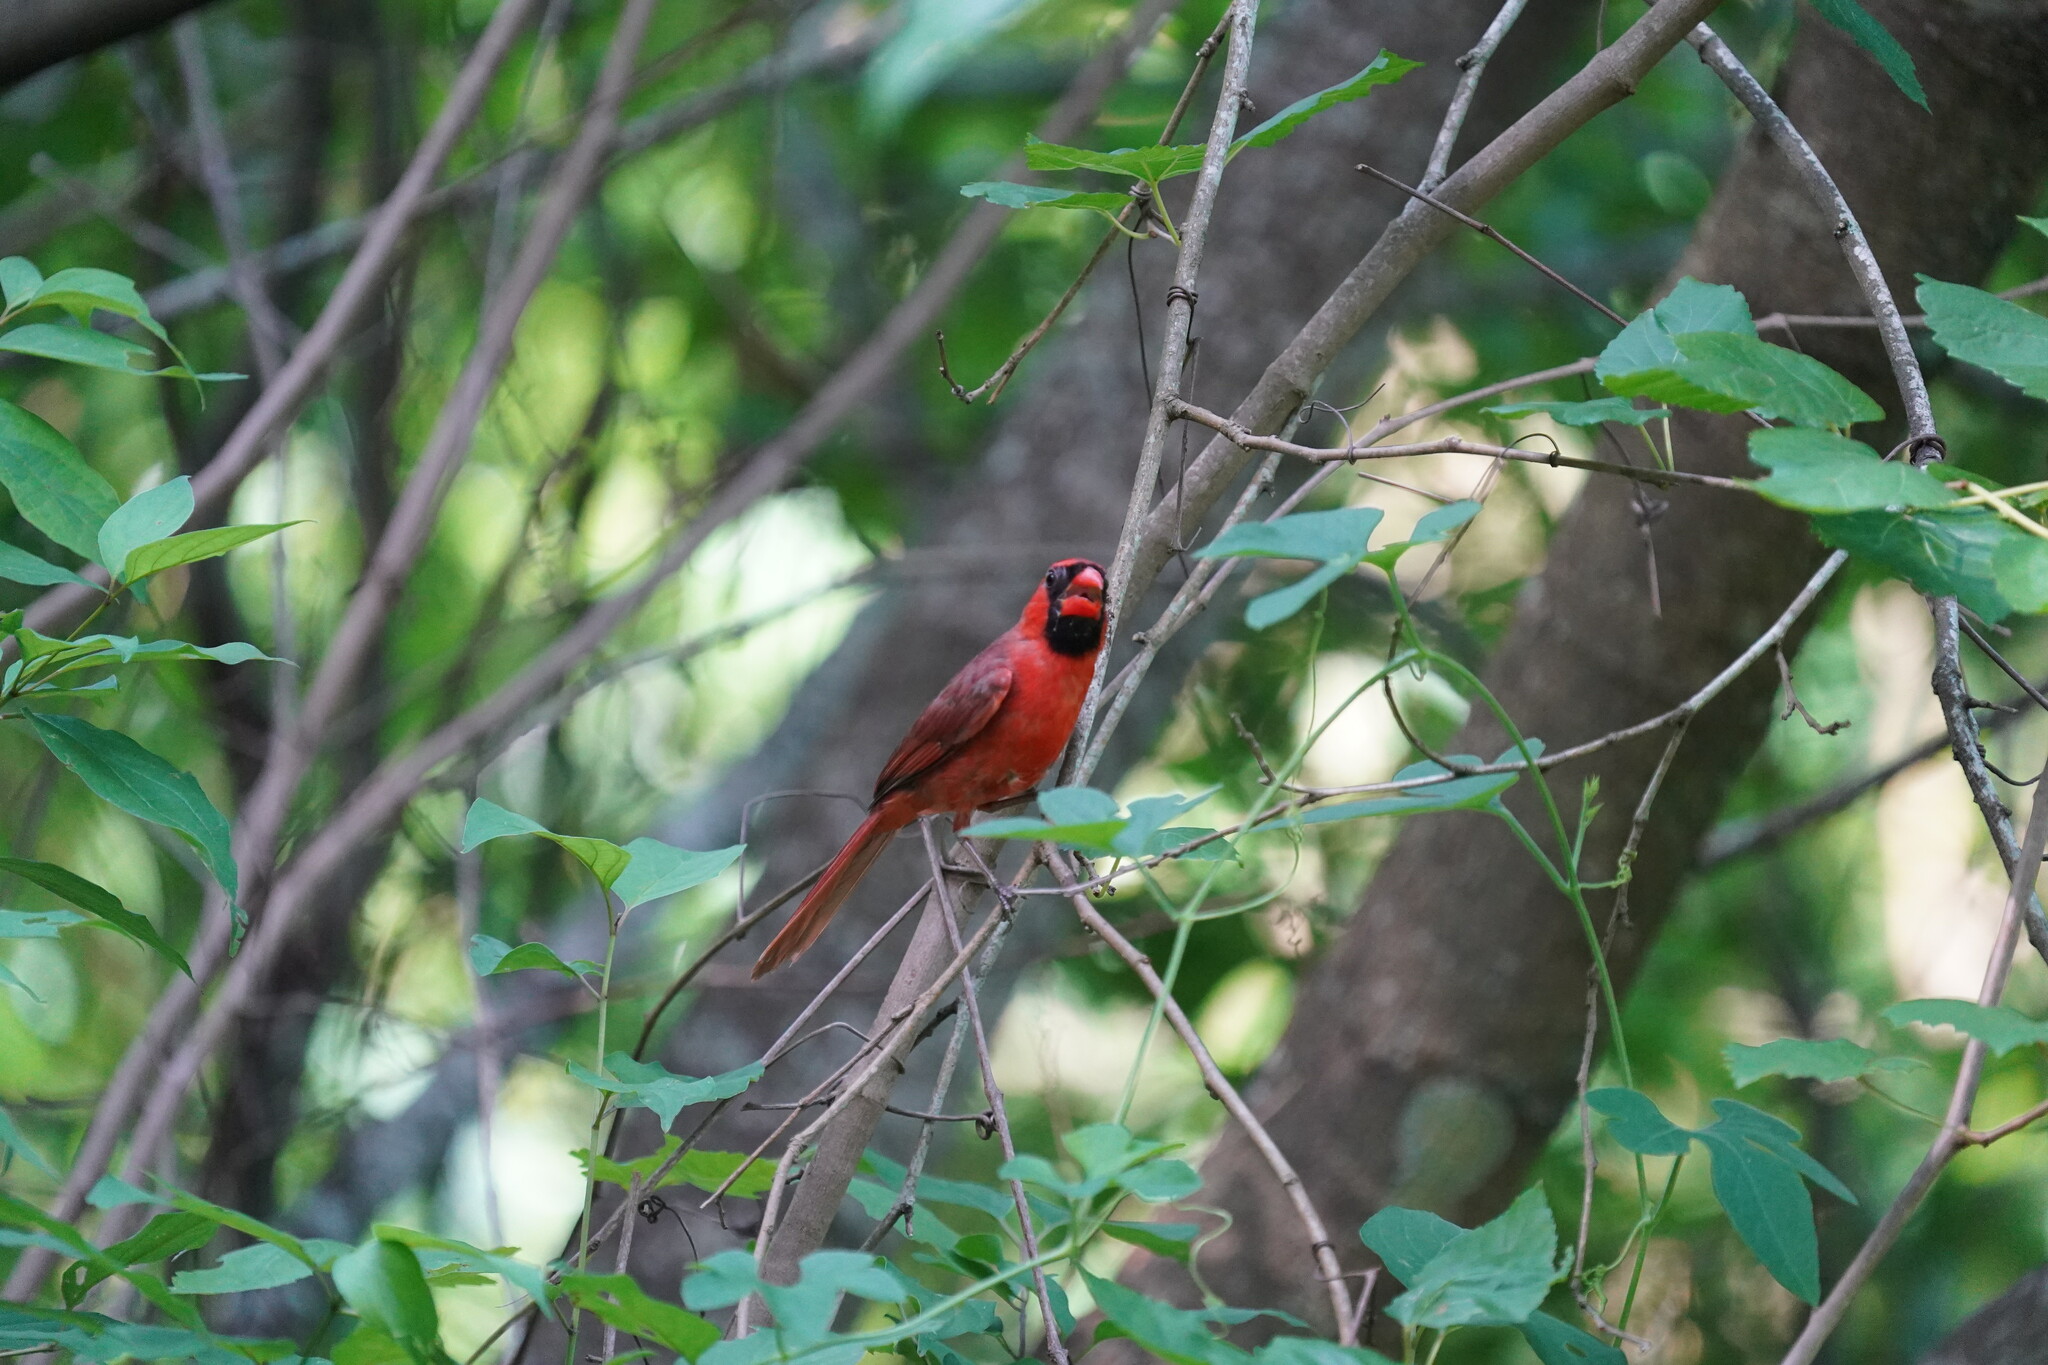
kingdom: Animalia
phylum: Chordata
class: Aves
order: Passeriformes
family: Cardinalidae
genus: Cardinalis
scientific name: Cardinalis cardinalis
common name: Northern cardinal
